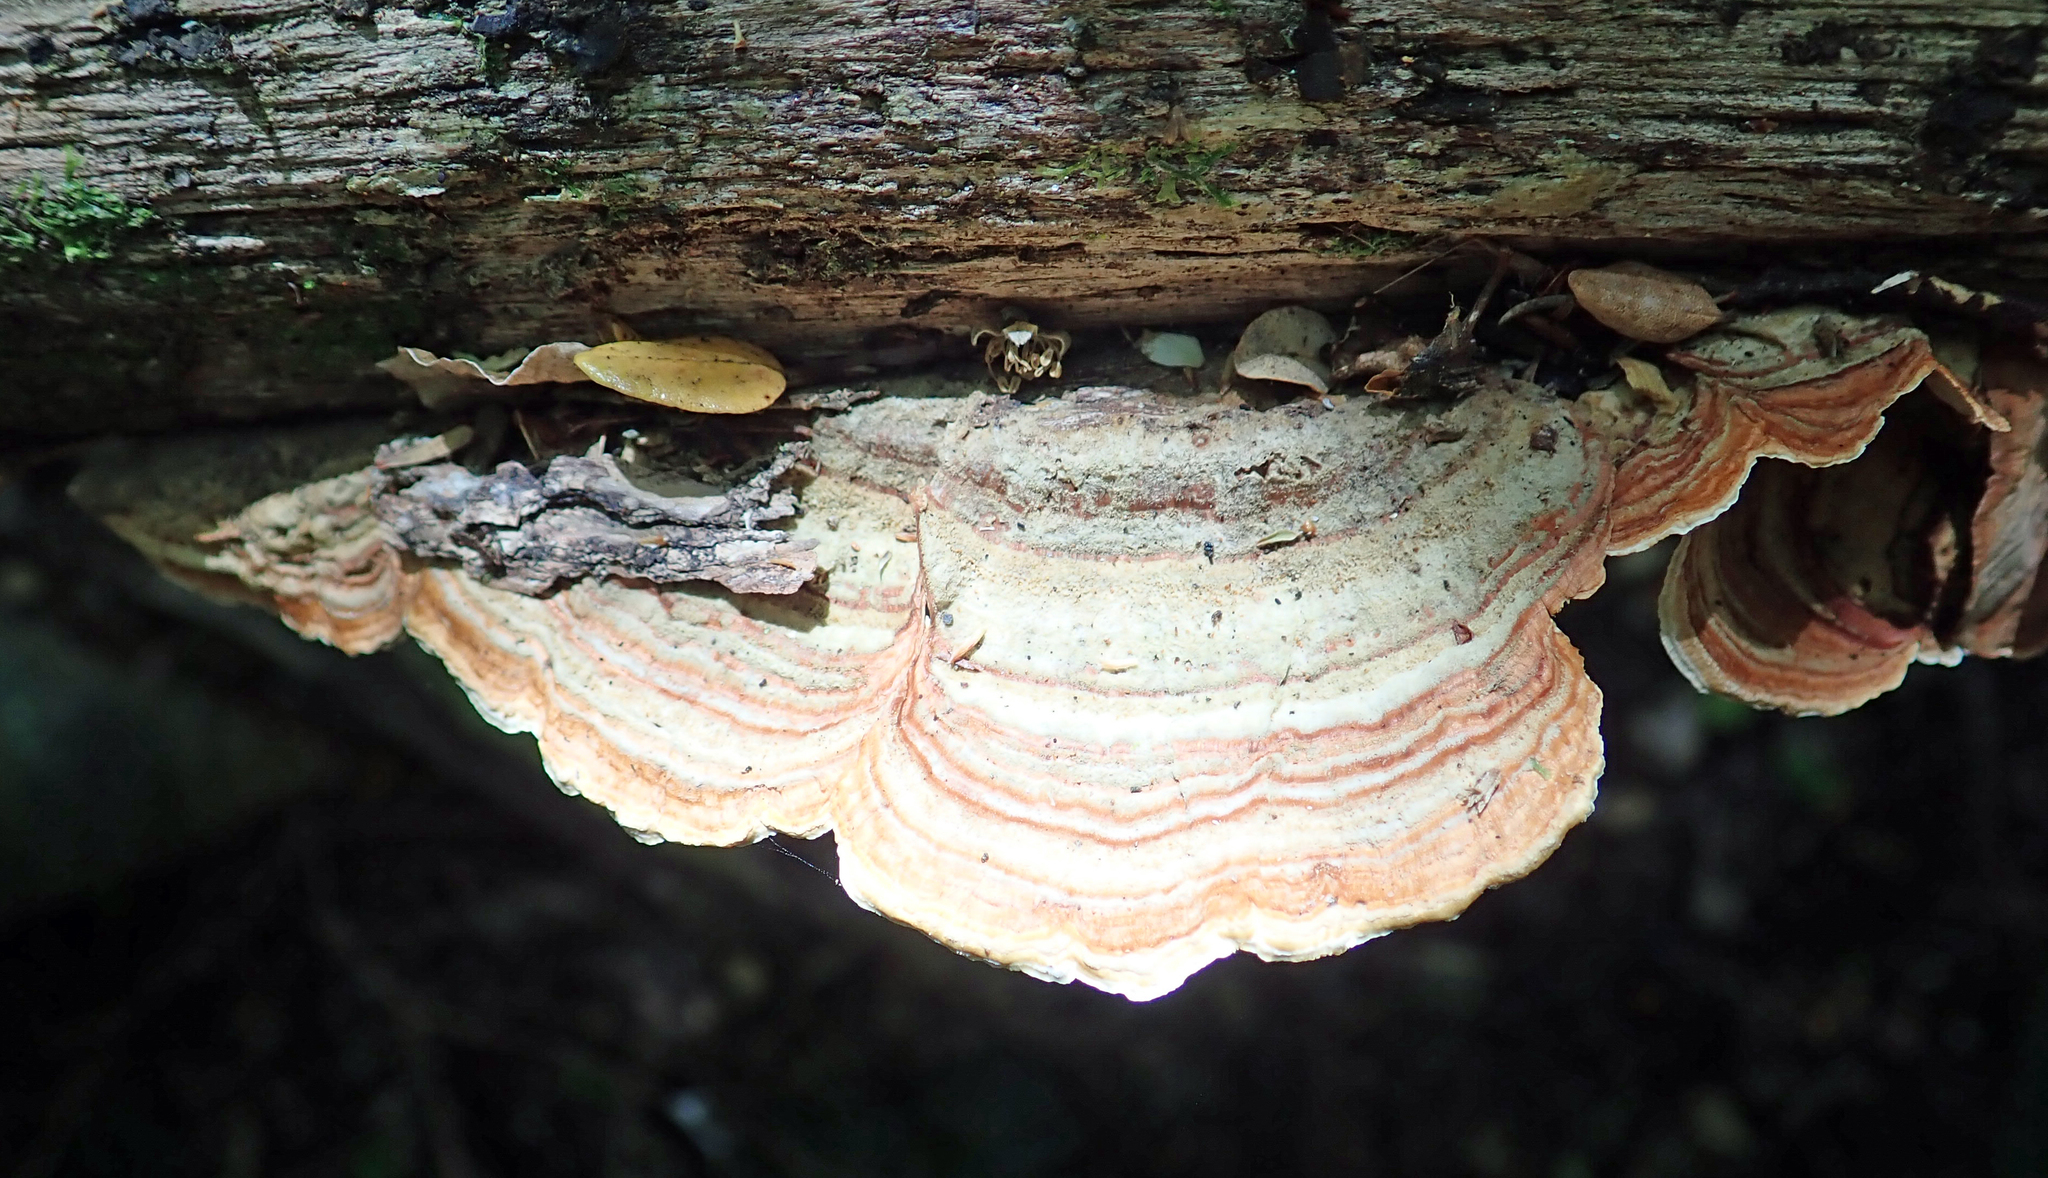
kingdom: Fungi
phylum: Basidiomycota
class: Agaricomycetes
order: Russulales
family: Stereaceae
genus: Stereum
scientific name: Stereum versicolor
